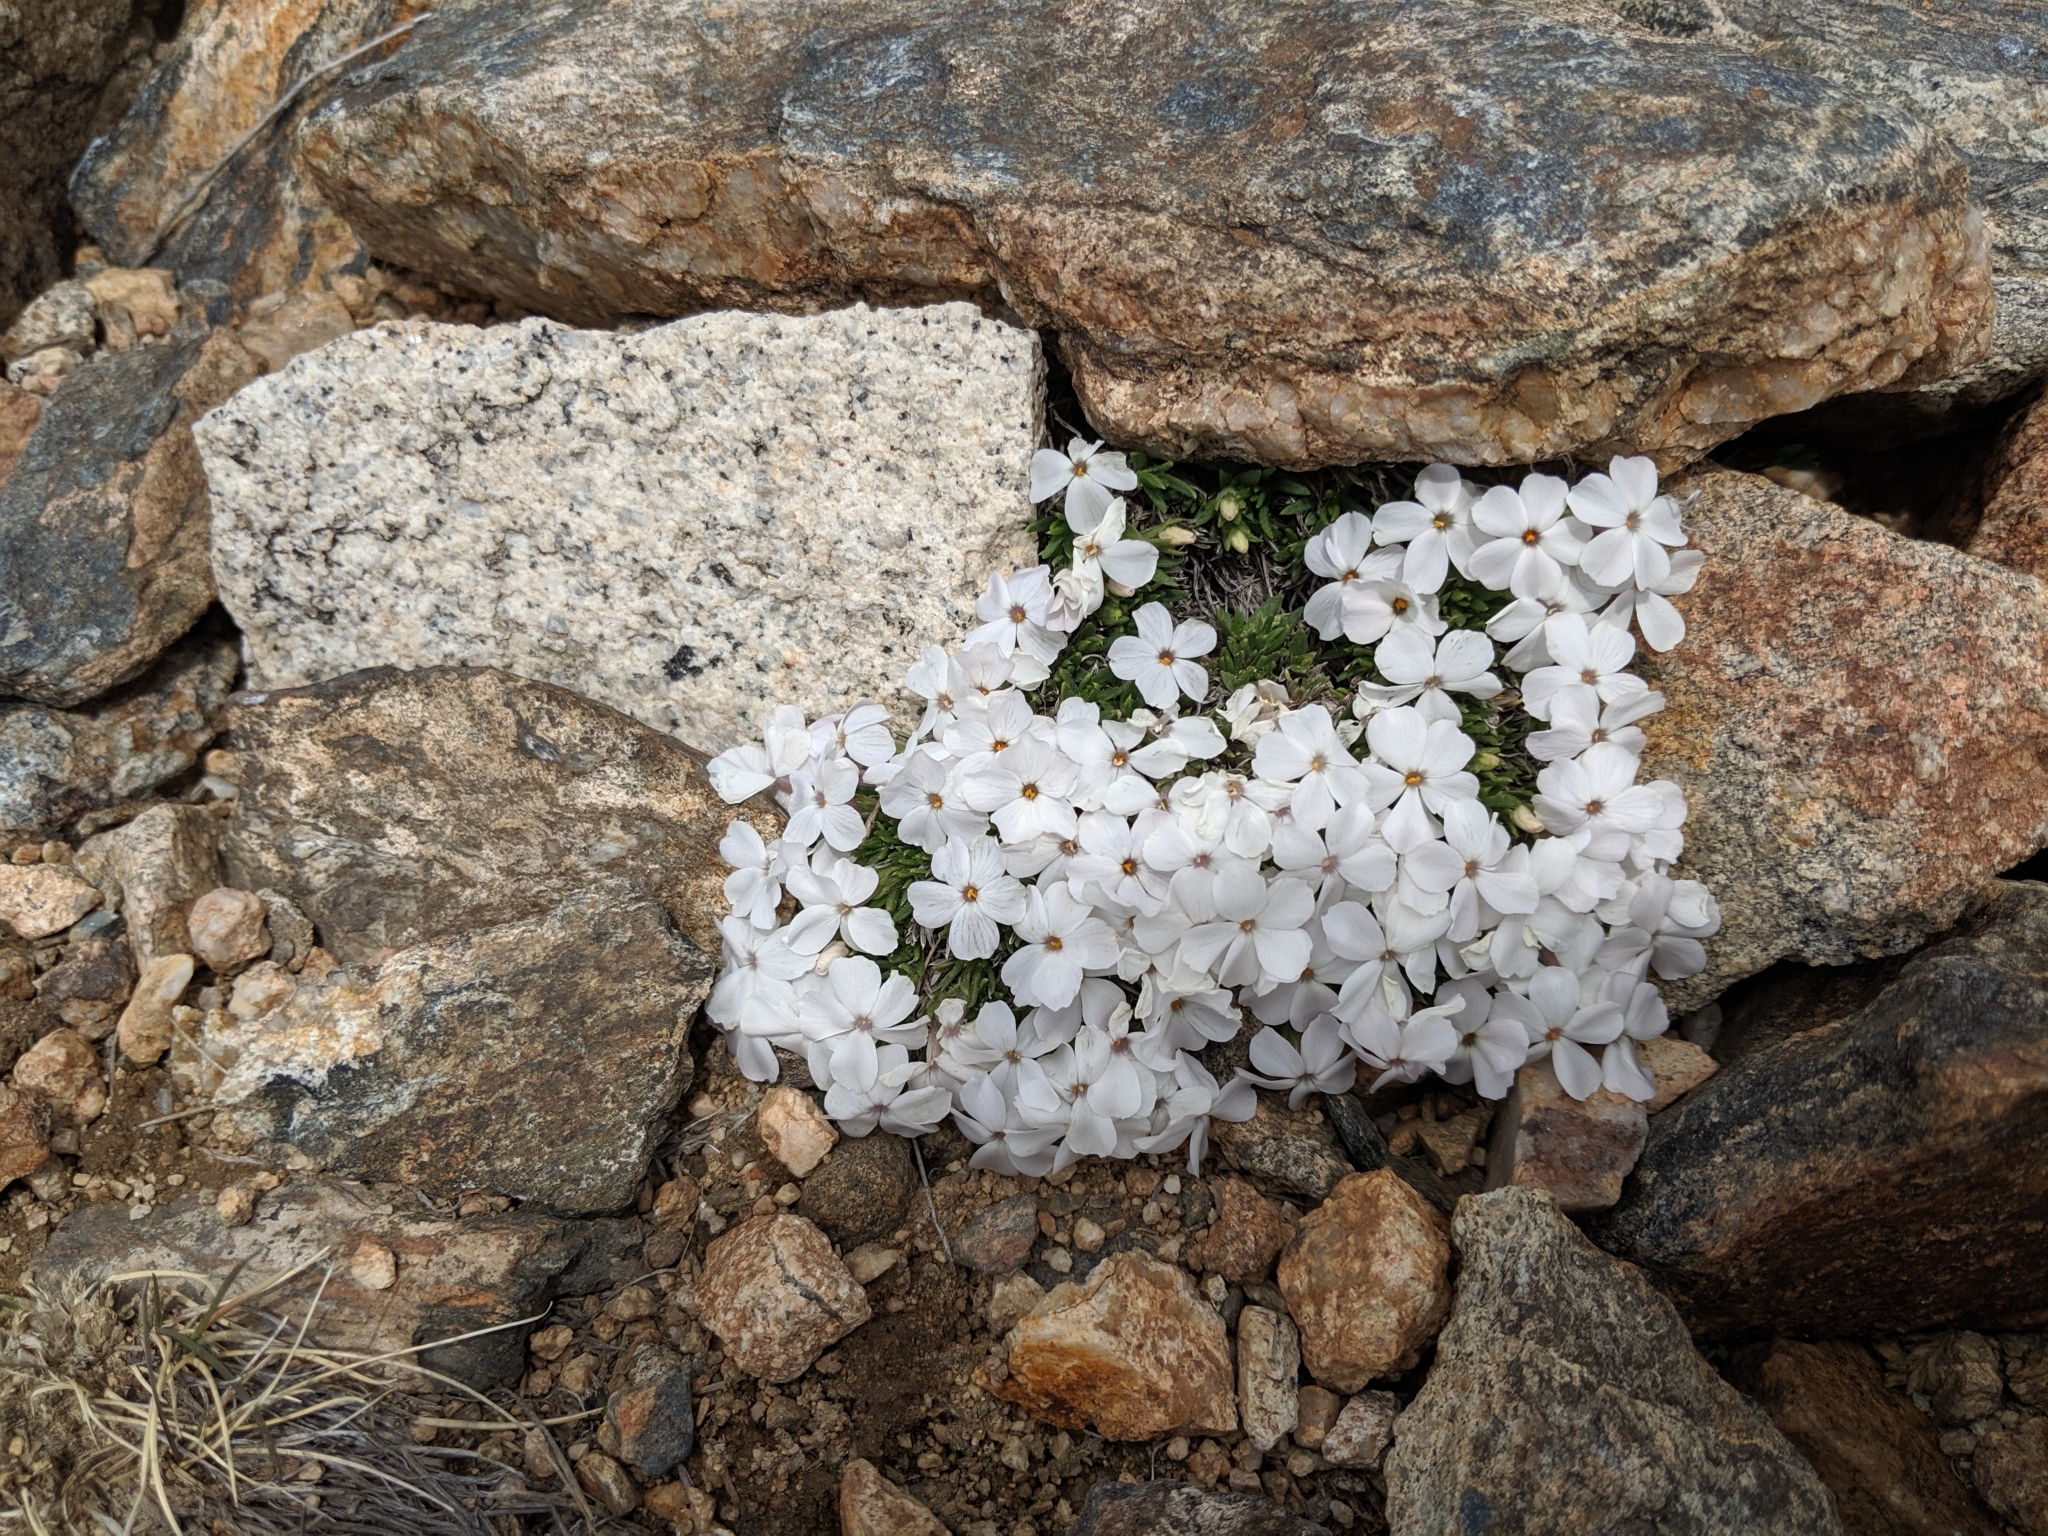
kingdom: Plantae
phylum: Tracheophyta
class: Magnoliopsida
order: Ericales
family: Polemoniaceae
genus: Phlox
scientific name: Phlox condensata
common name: Compact phlox
